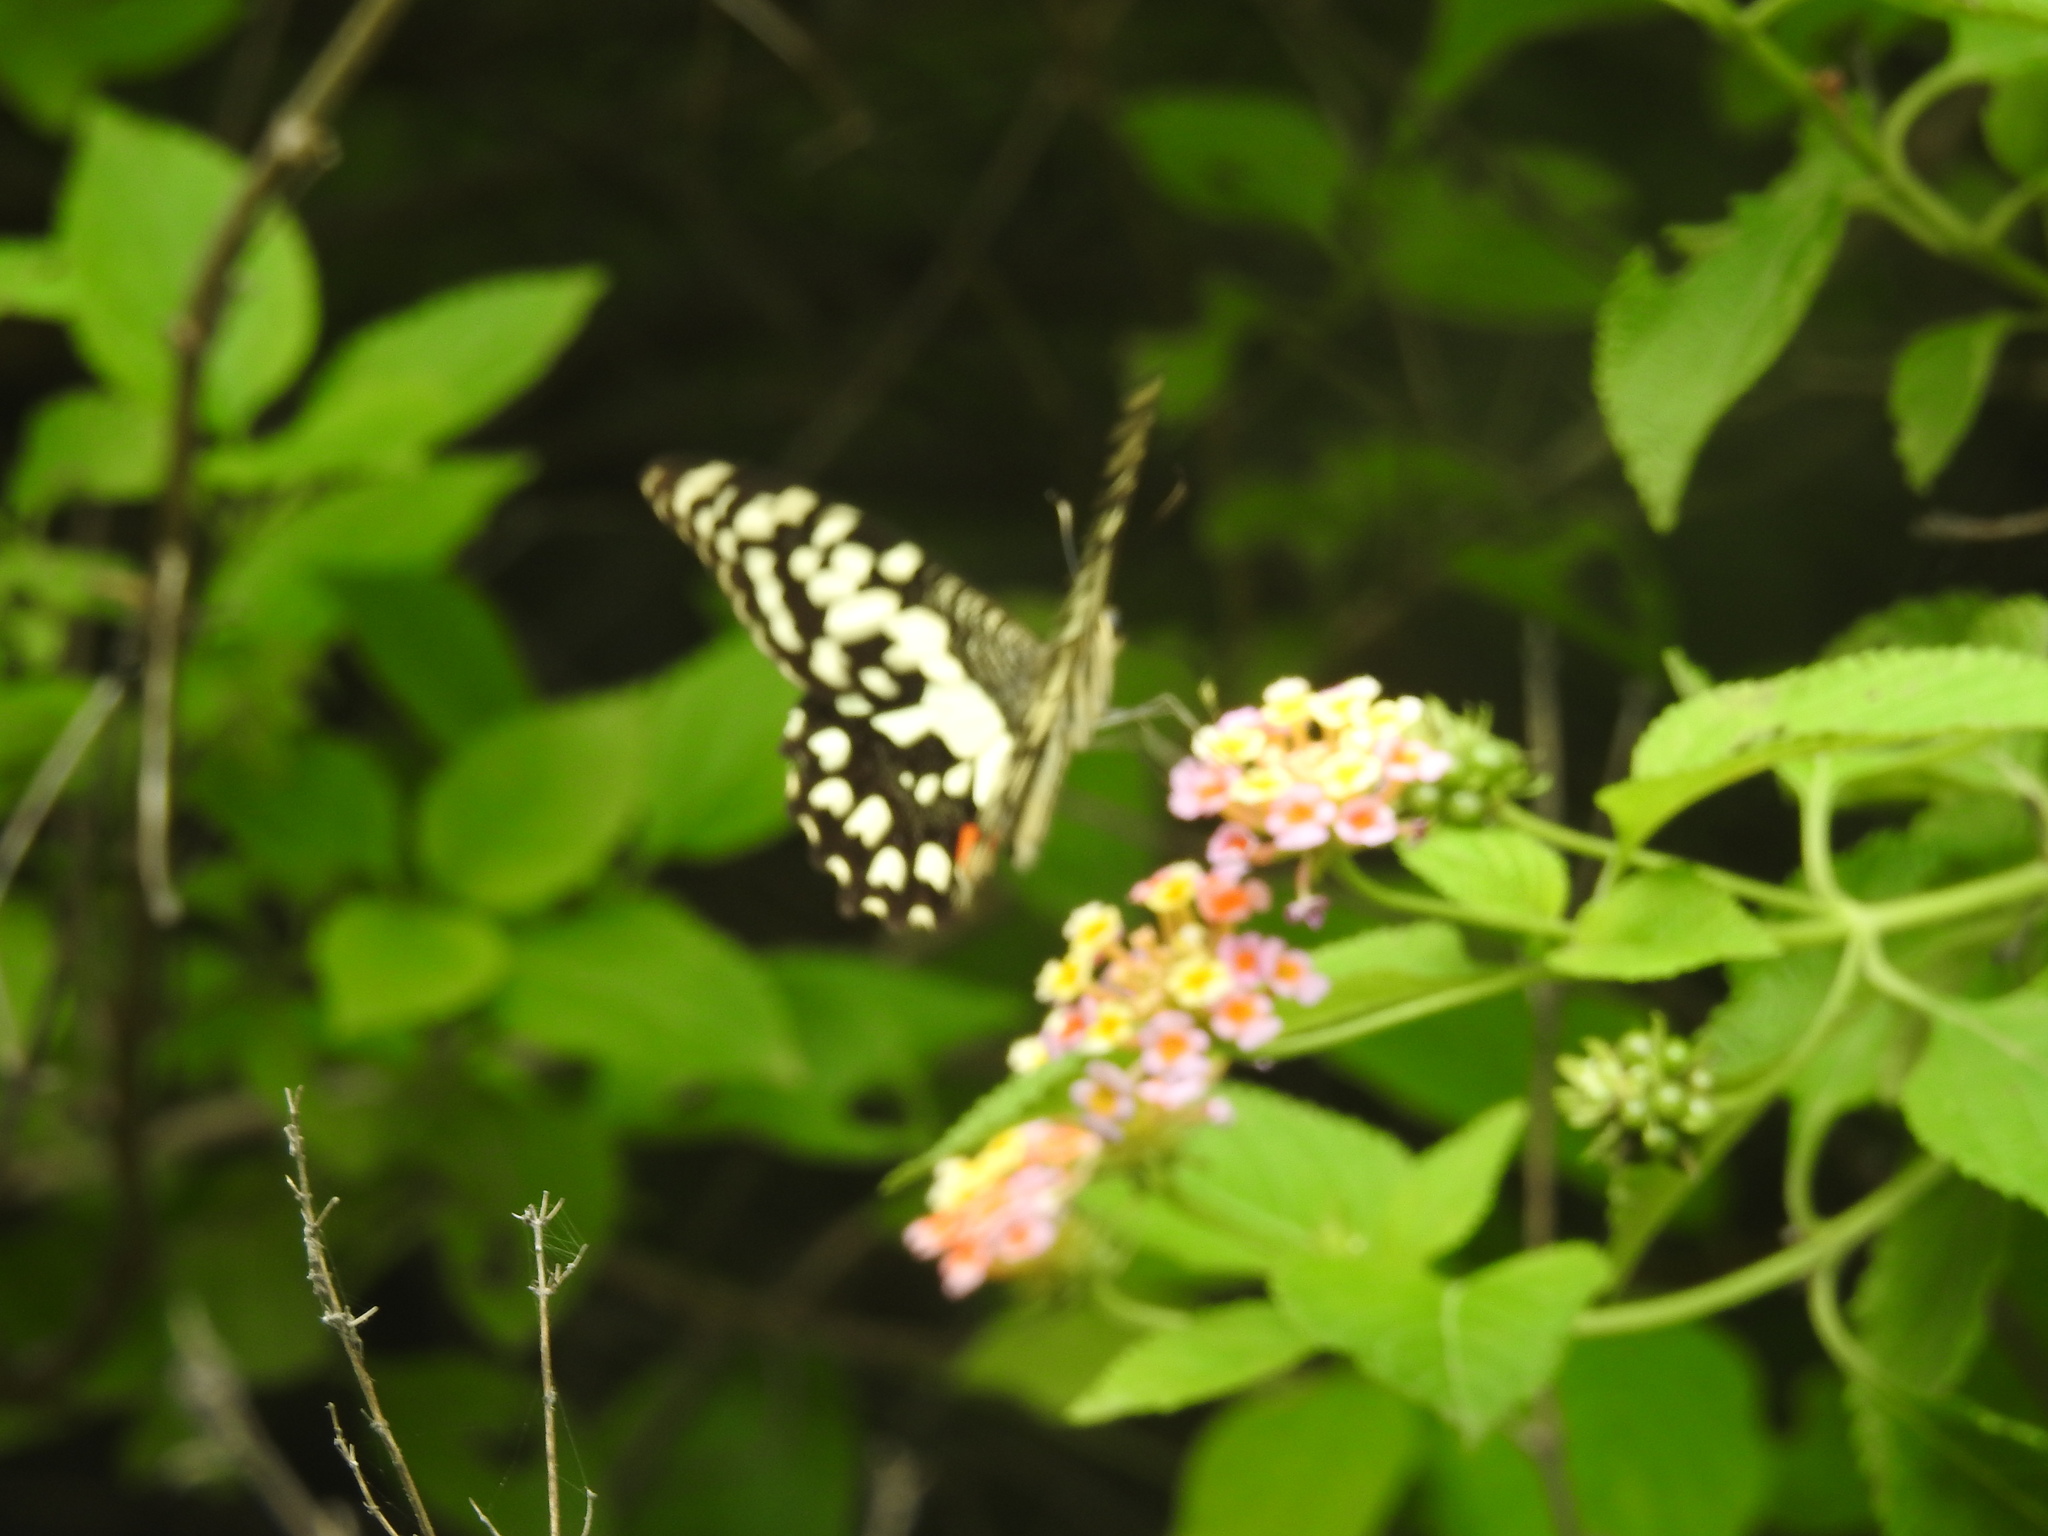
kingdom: Animalia
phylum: Arthropoda
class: Insecta
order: Lepidoptera
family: Papilionidae
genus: Papilio
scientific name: Papilio demoleus
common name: Lime butterfly
